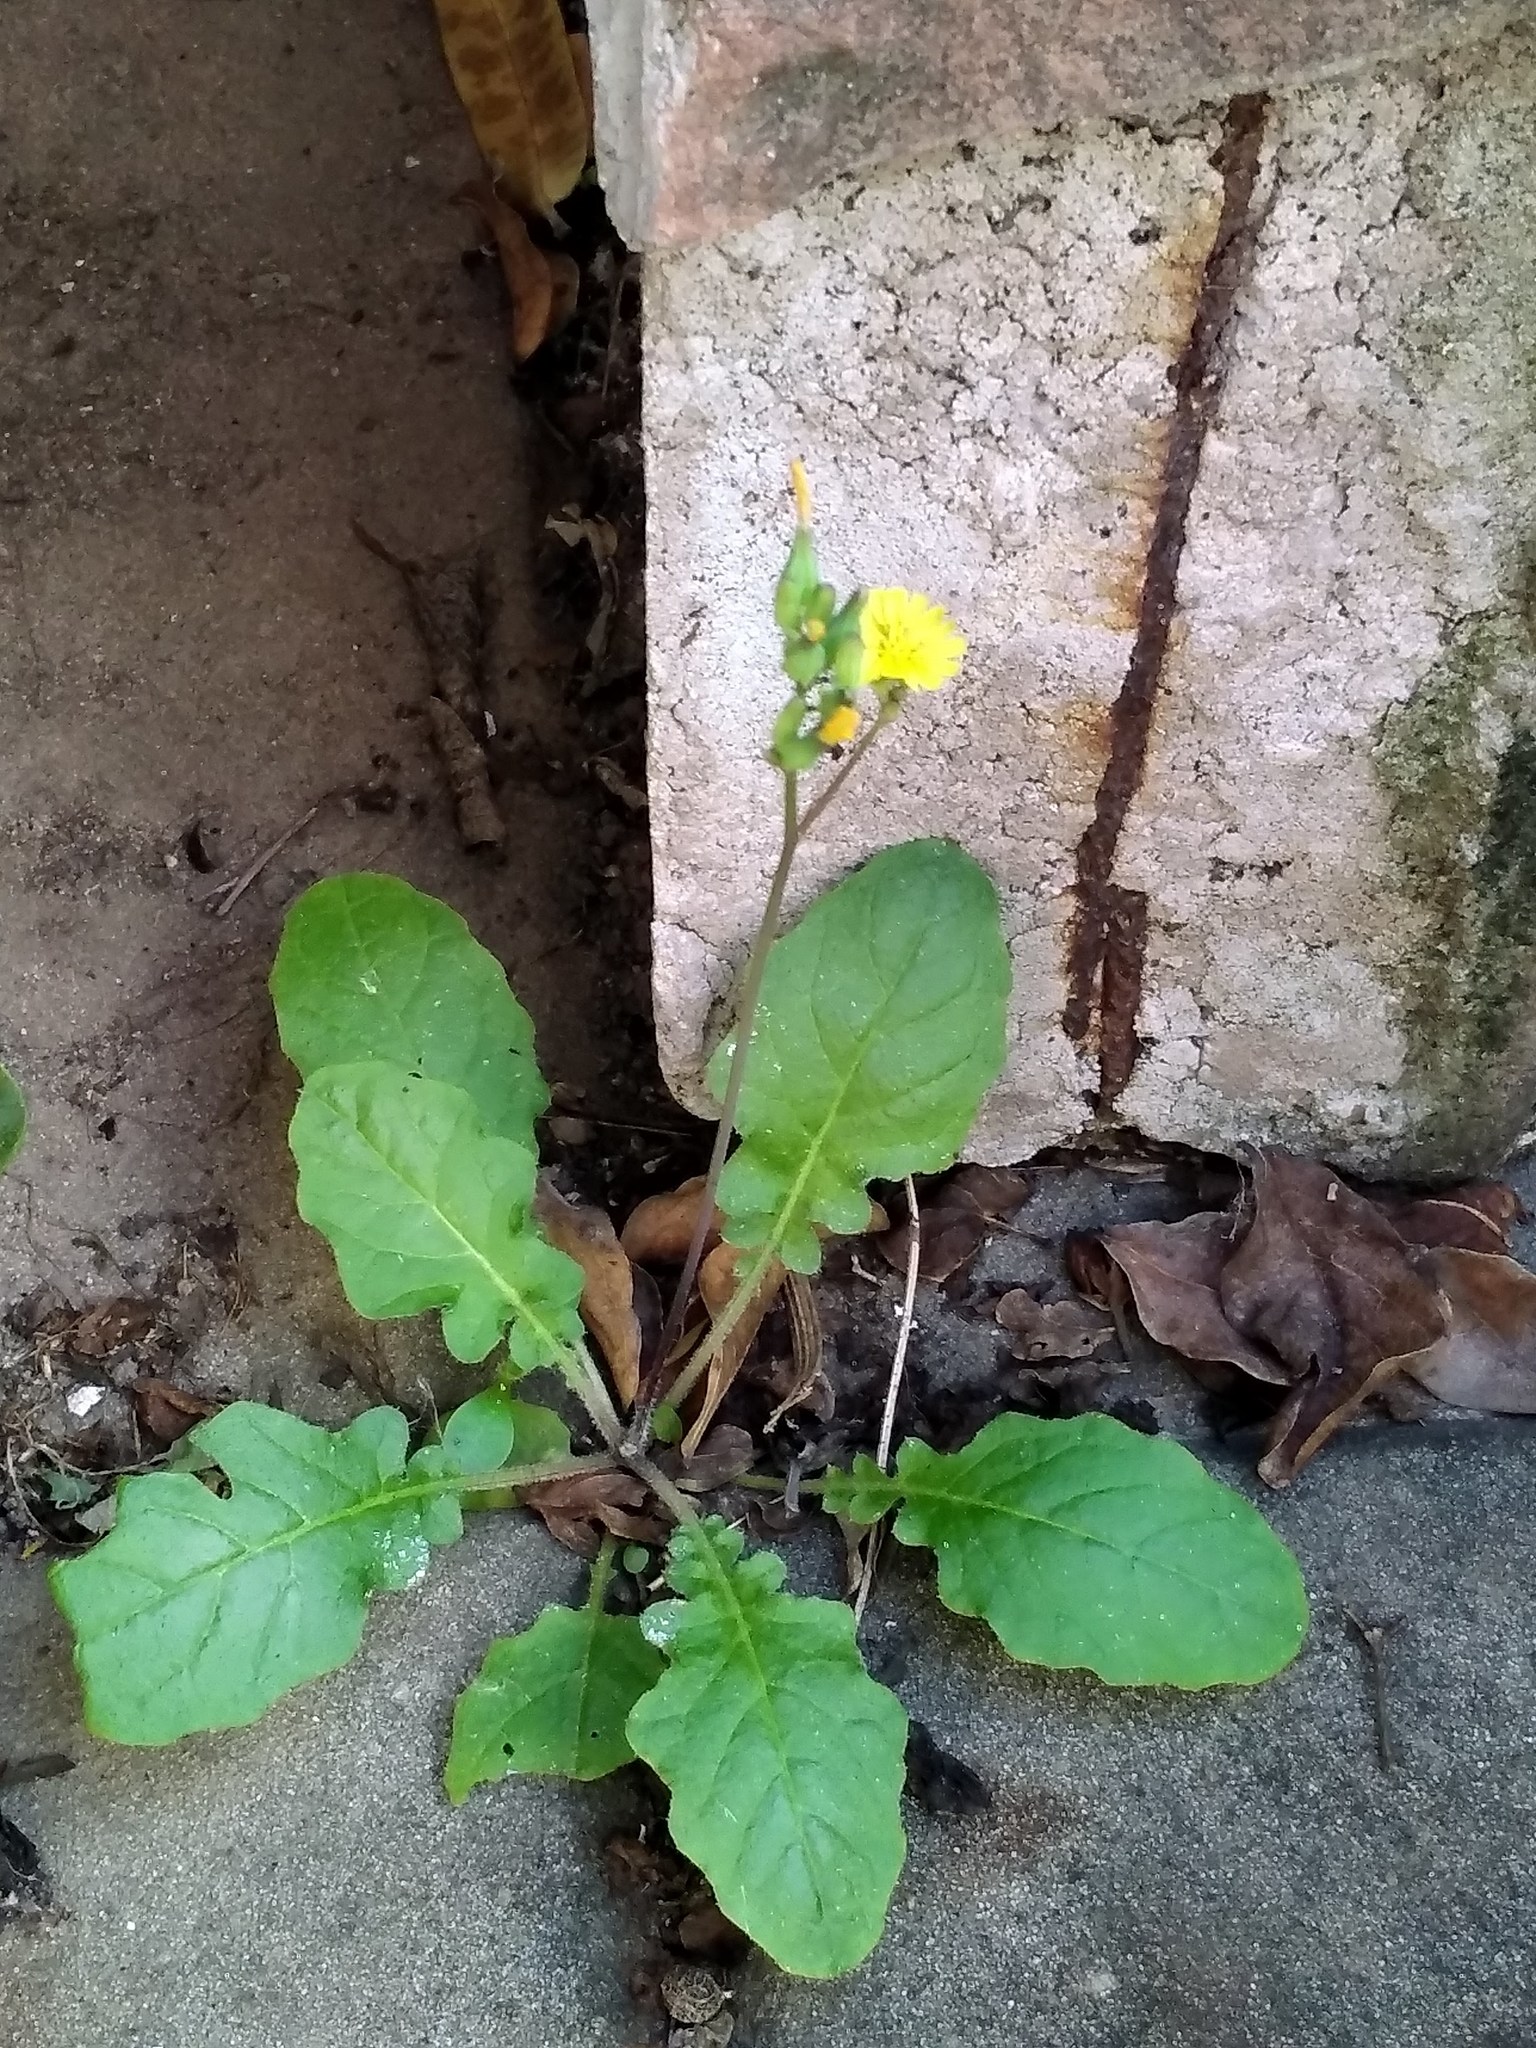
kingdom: Plantae
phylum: Tracheophyta
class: Magnoliopsida
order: Asterales
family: Asteraceae
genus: Youngia
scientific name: Youngia japonica
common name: Oriental false hawksbeard
